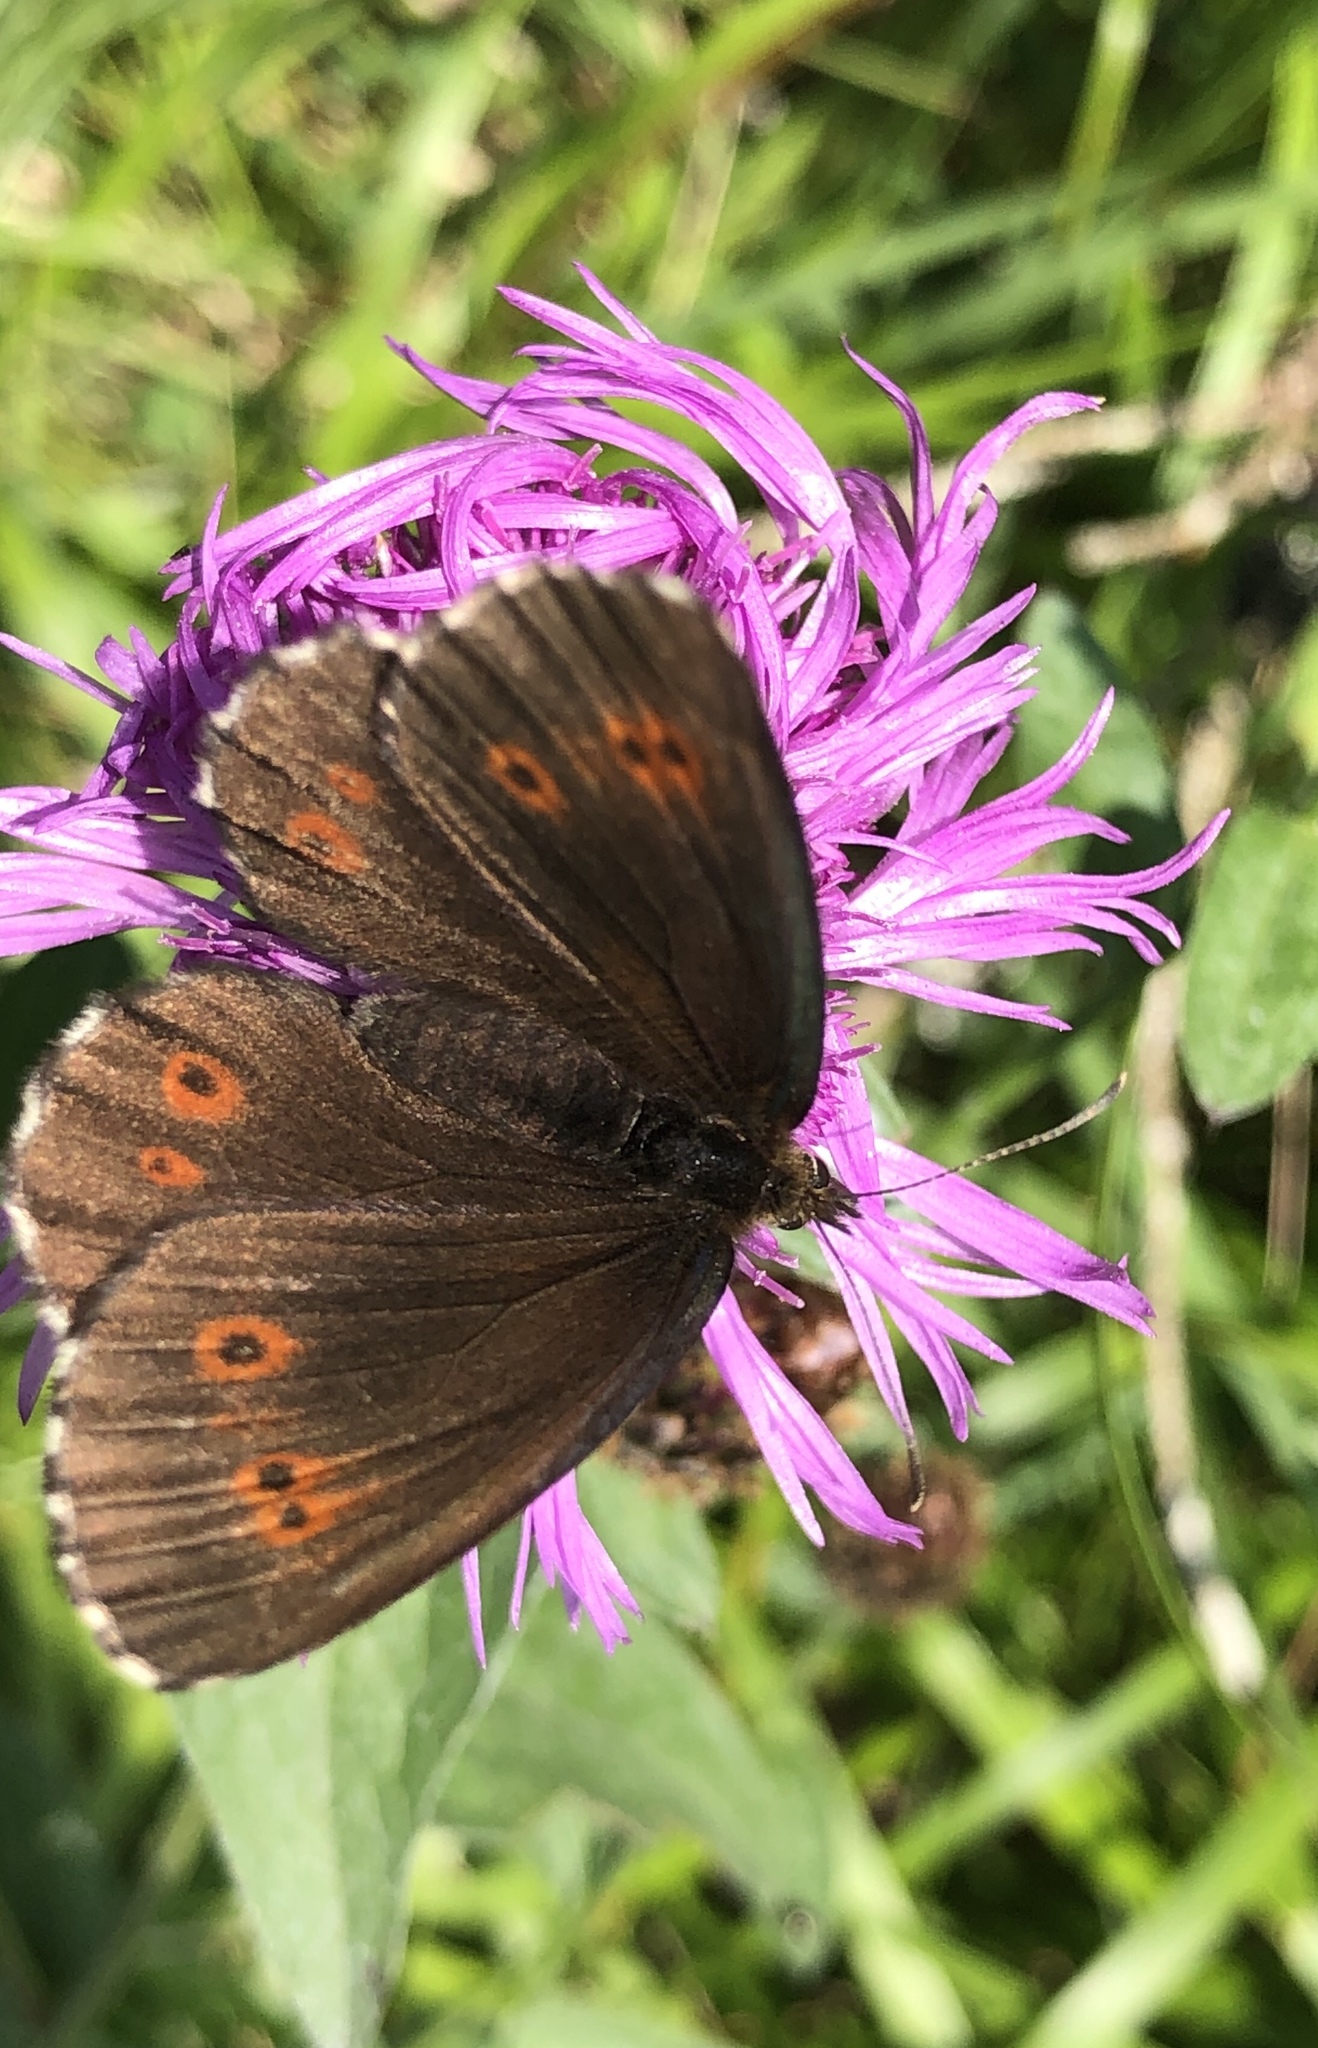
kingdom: Animalia
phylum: Arthropoda
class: Insecta
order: Lepidoptera
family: Nymphalidae
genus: Erebia
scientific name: Erebia euryale
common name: Large ringlet
